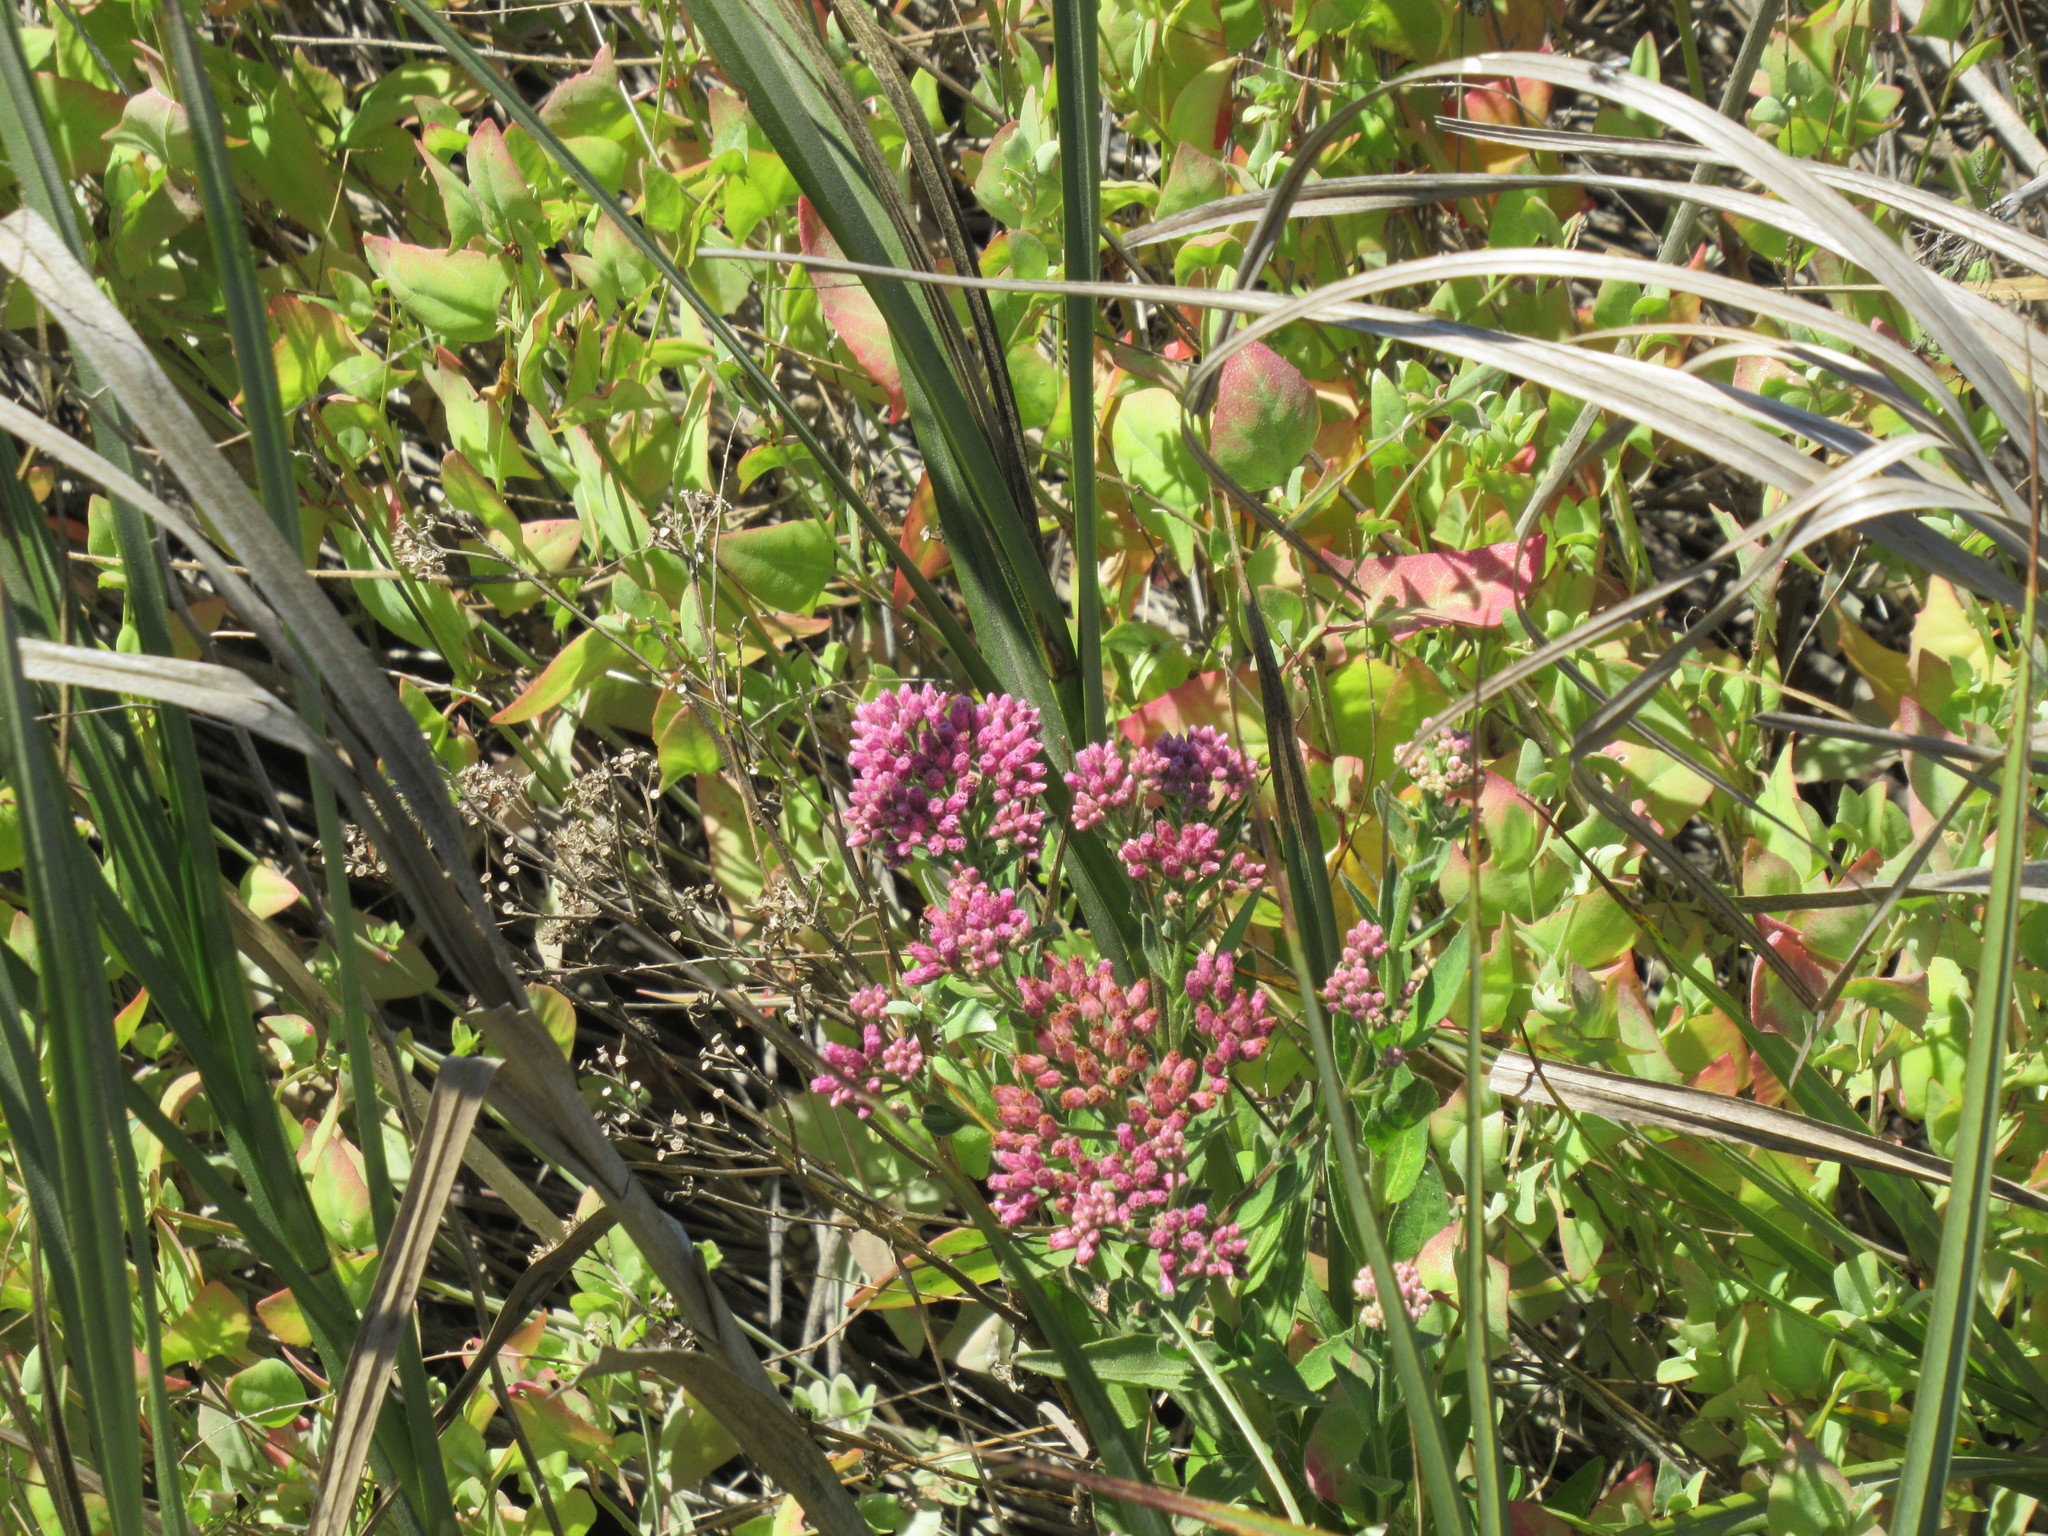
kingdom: Plantae
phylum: Tracheophyta
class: Magnoliopsida
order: Asterales
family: Asteraceae
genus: Pluchea
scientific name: Pluchea odorata
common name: Saltmarsh fleabane
